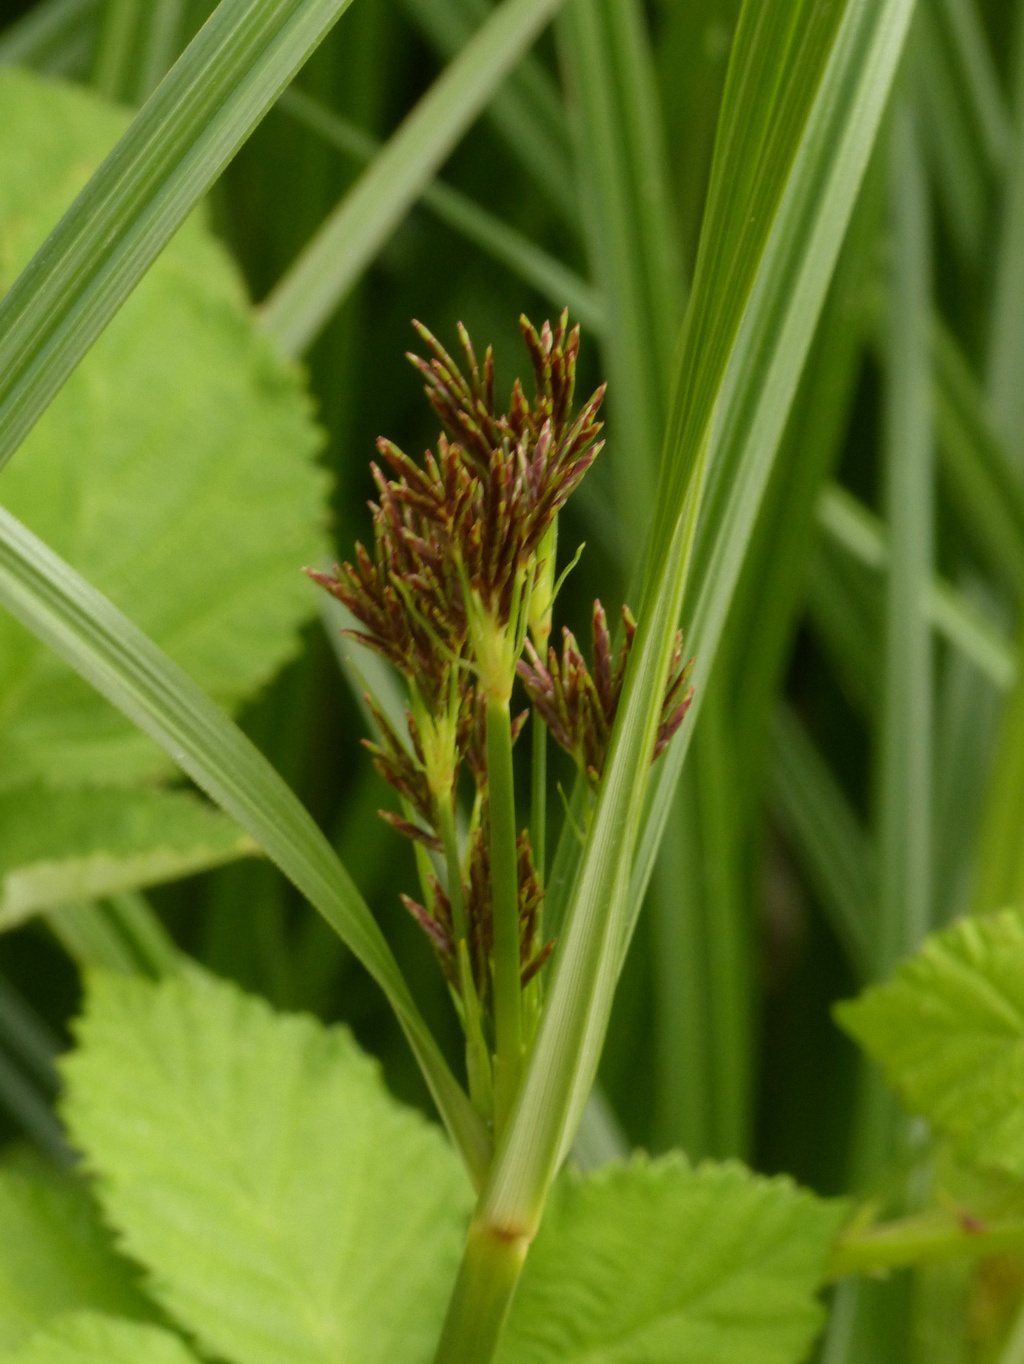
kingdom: Plantae
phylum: Tracheophyta
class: Liliopsida
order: Poales
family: Cyperaceae
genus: Cyperus
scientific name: Cyperus longus
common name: Galingale
